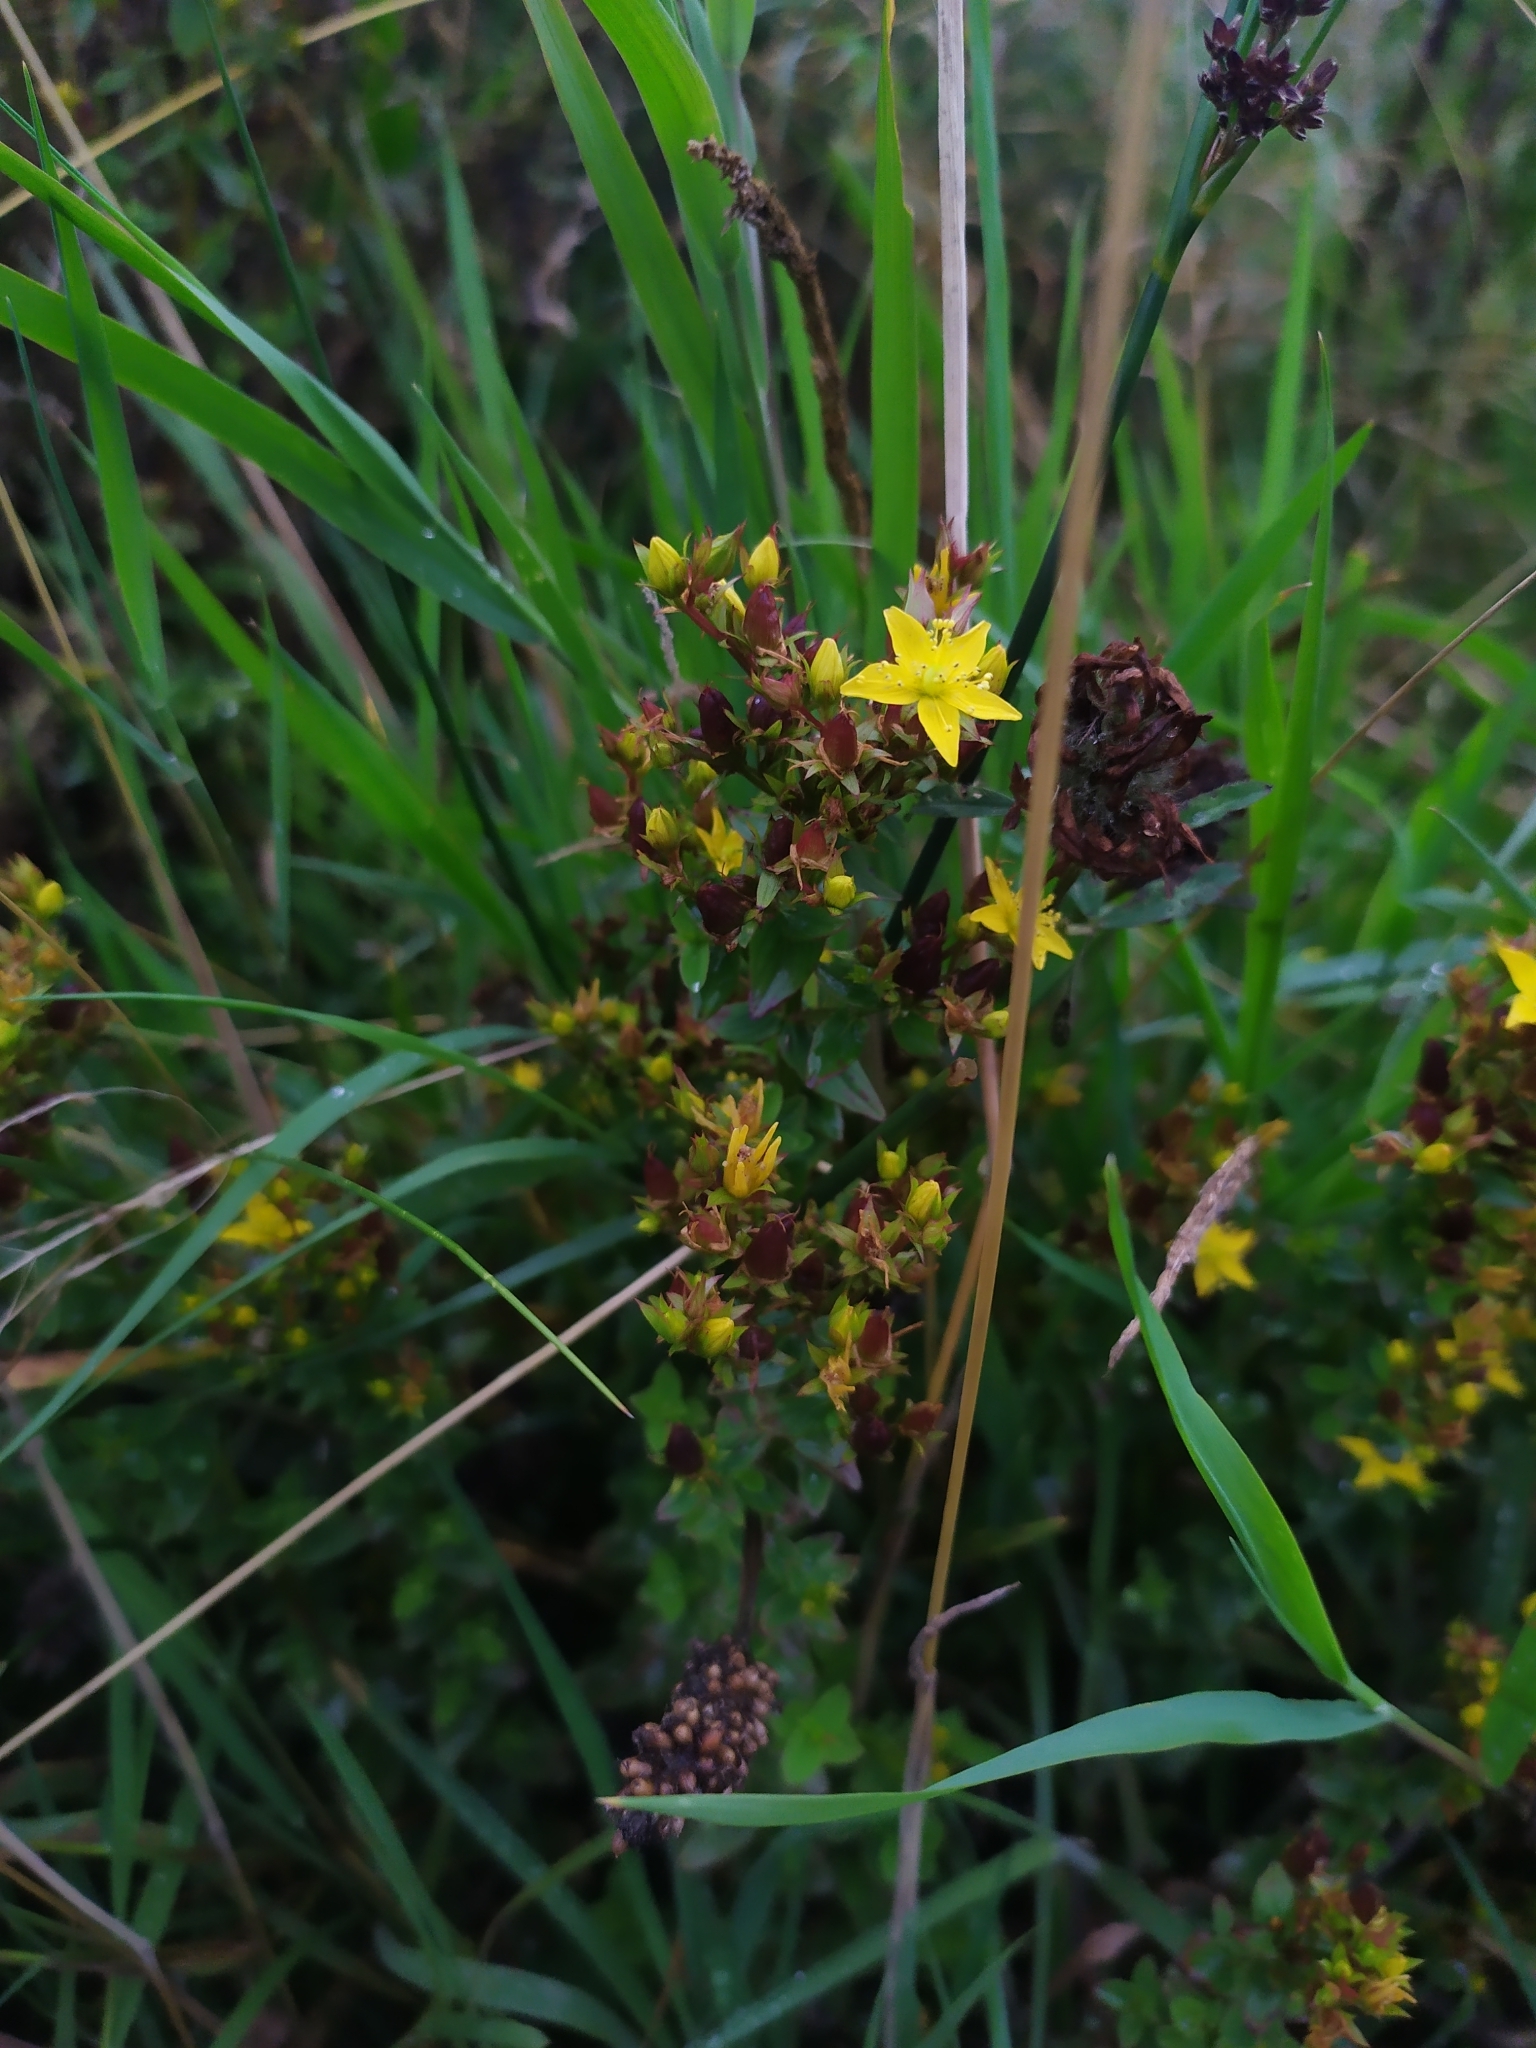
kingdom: Plantae
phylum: Tracheophyta
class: Magnoliopsida
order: Malpighiales
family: Hypericaceae
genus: Hypericum
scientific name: Hypericum tetrapterum
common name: Square-stalked st. john's-wort
